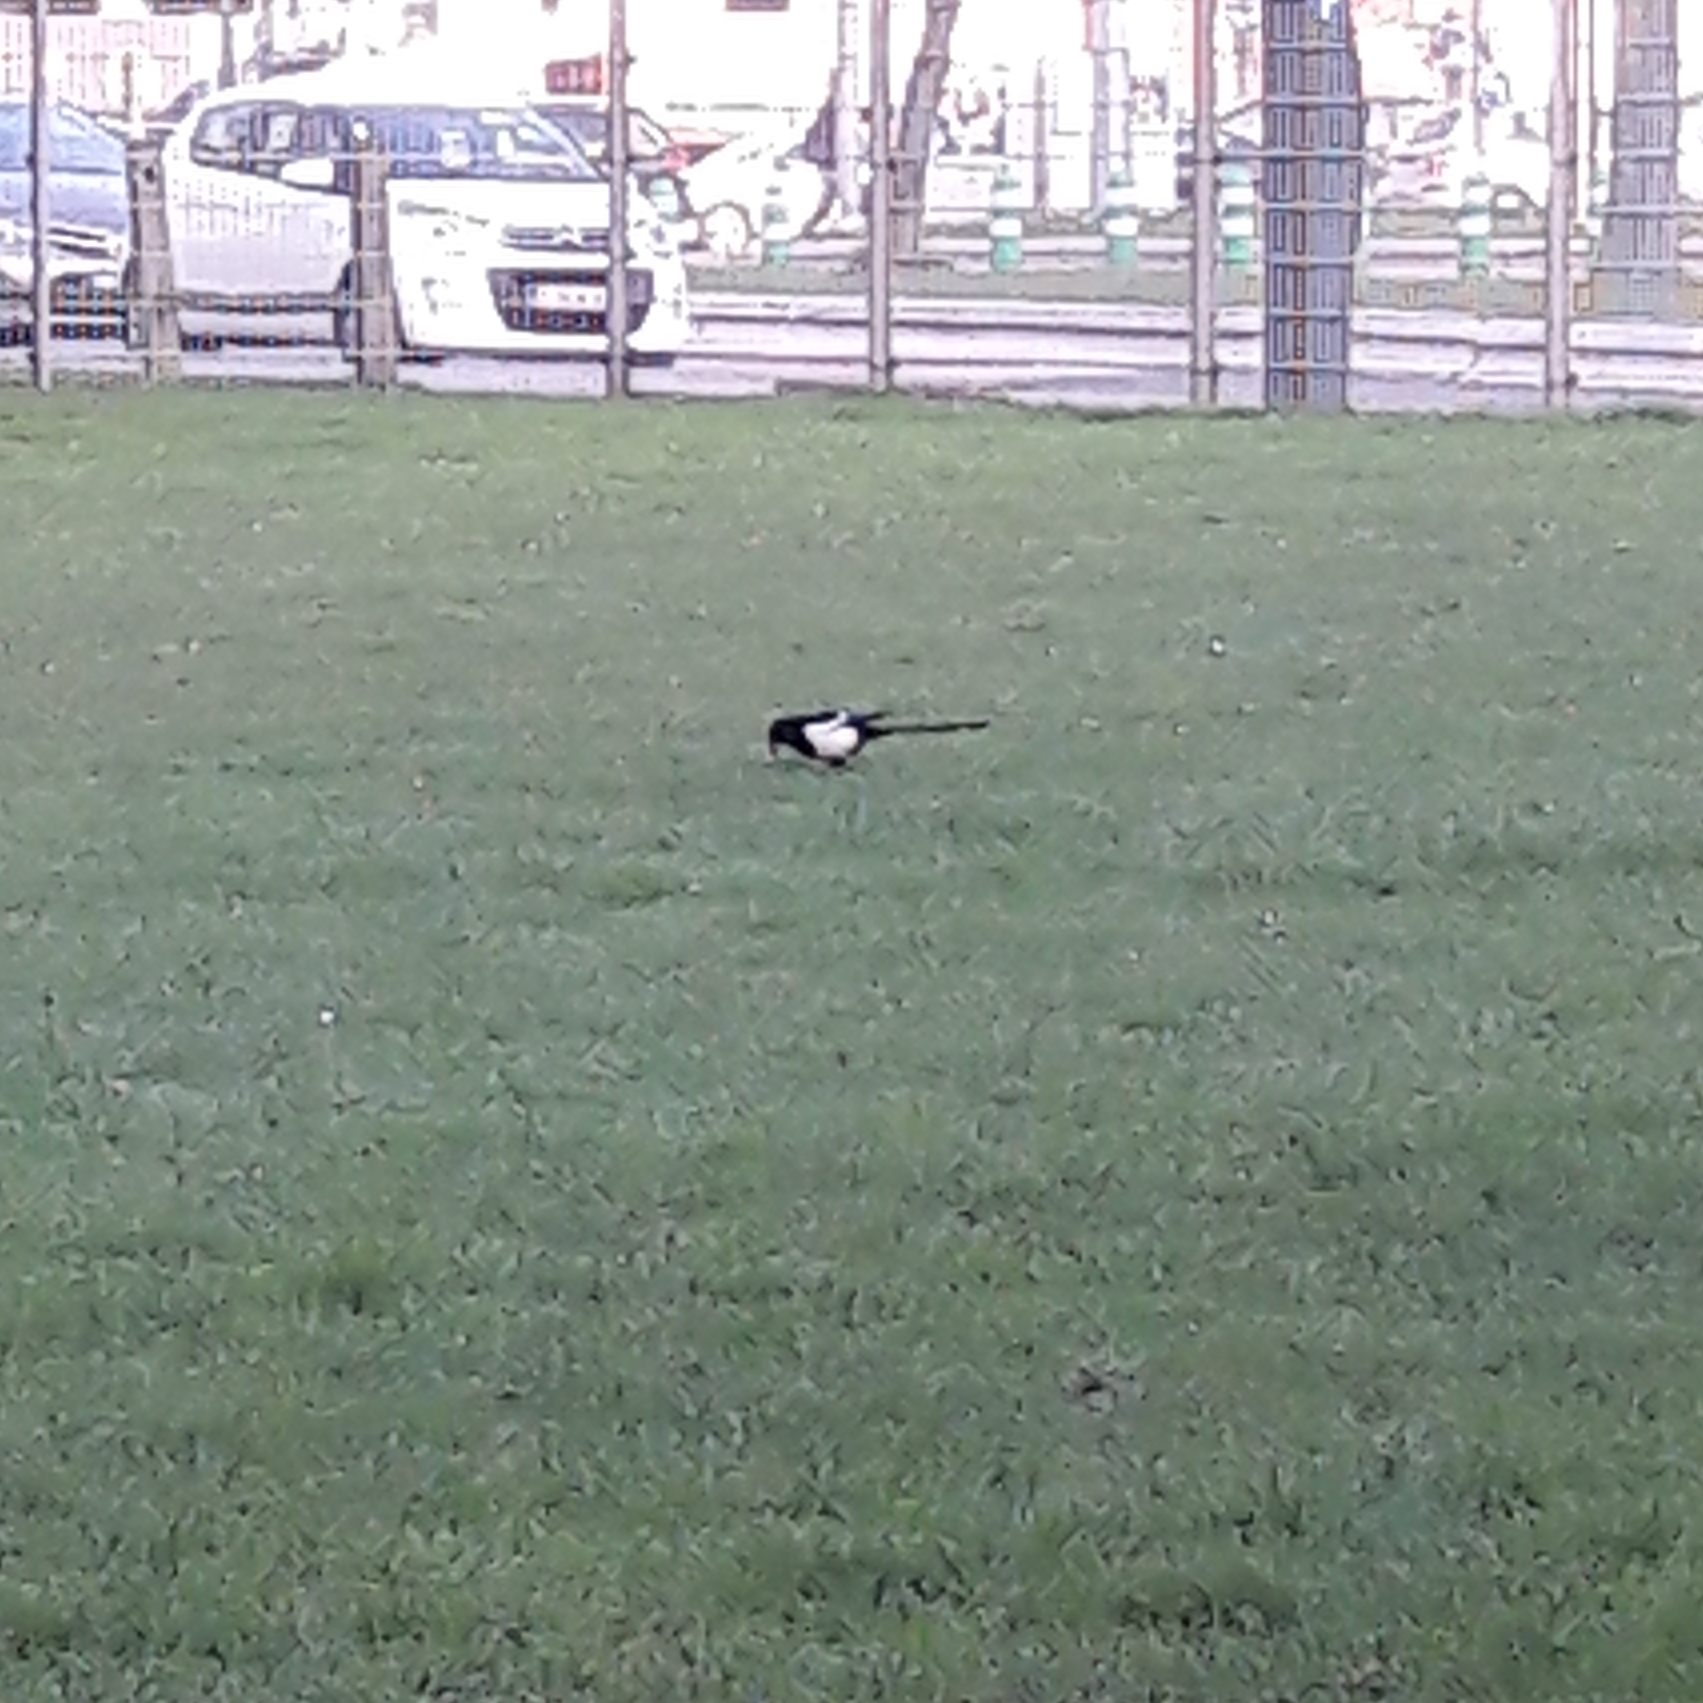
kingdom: Animalia
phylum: Chordata
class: Aves
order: Passeriformes
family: Corvidae
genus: Pica
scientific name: Pica pica
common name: Eurasian magpie
